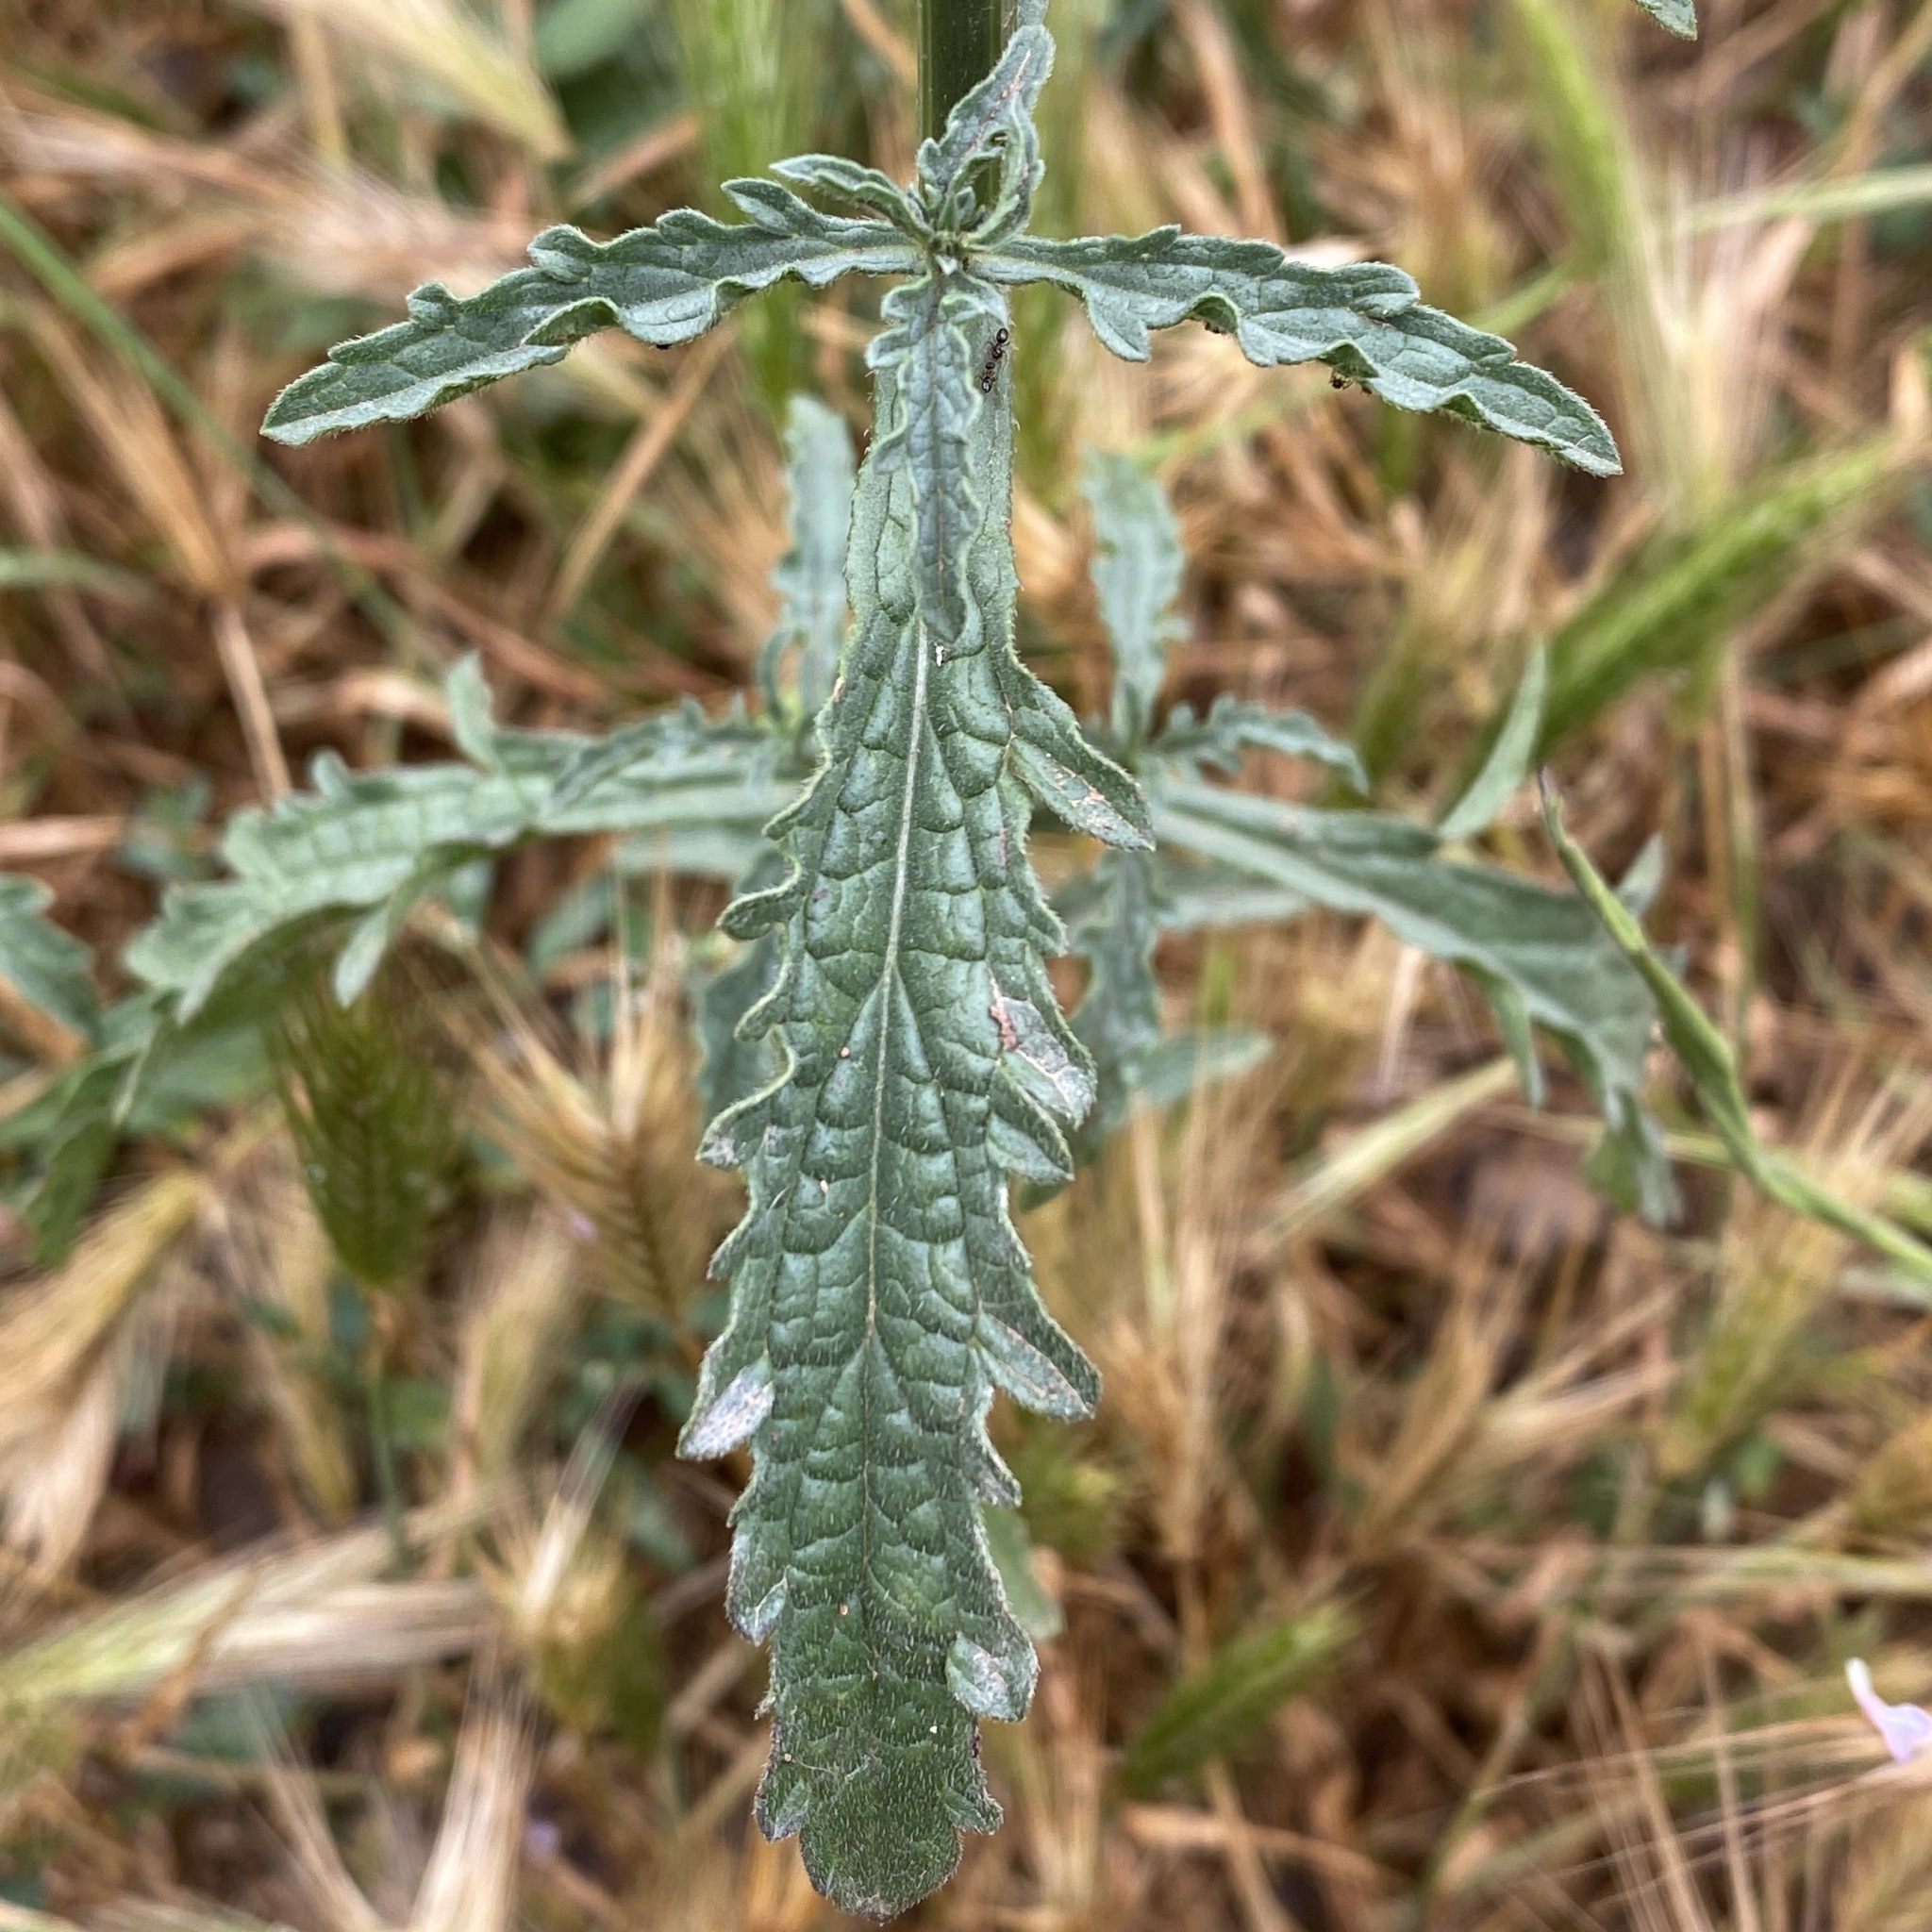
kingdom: Plantae
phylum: Tracheophyta
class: Magnoliopsida
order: Lamiales
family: Verbenaceae
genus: Verbena
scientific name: Verbena officinalis
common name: Vervain
